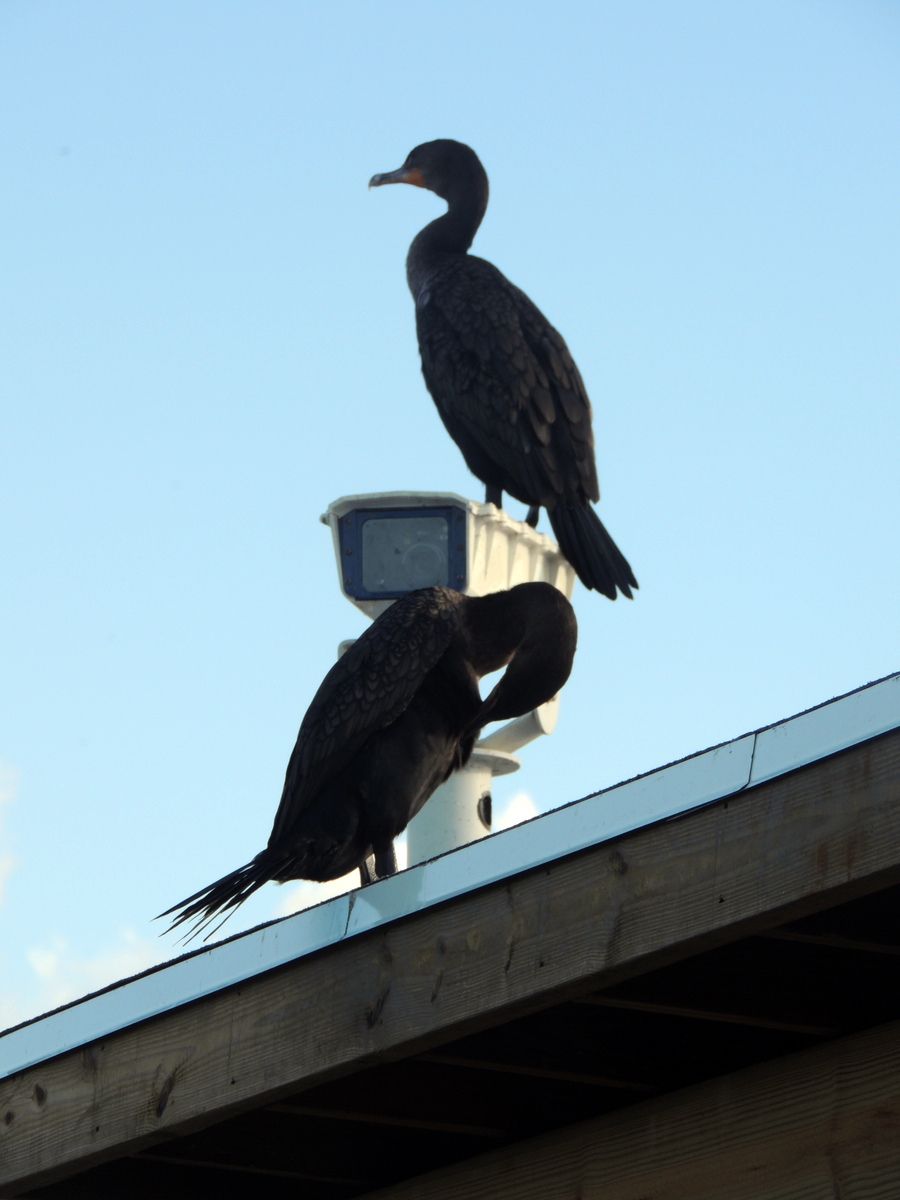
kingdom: Animalia
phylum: Chordata
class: Aves
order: Suliformes
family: Phalacrocoracidae
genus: Phalacrocorax
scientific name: Phalacrocorax auritus
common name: Double-crested cormorant
